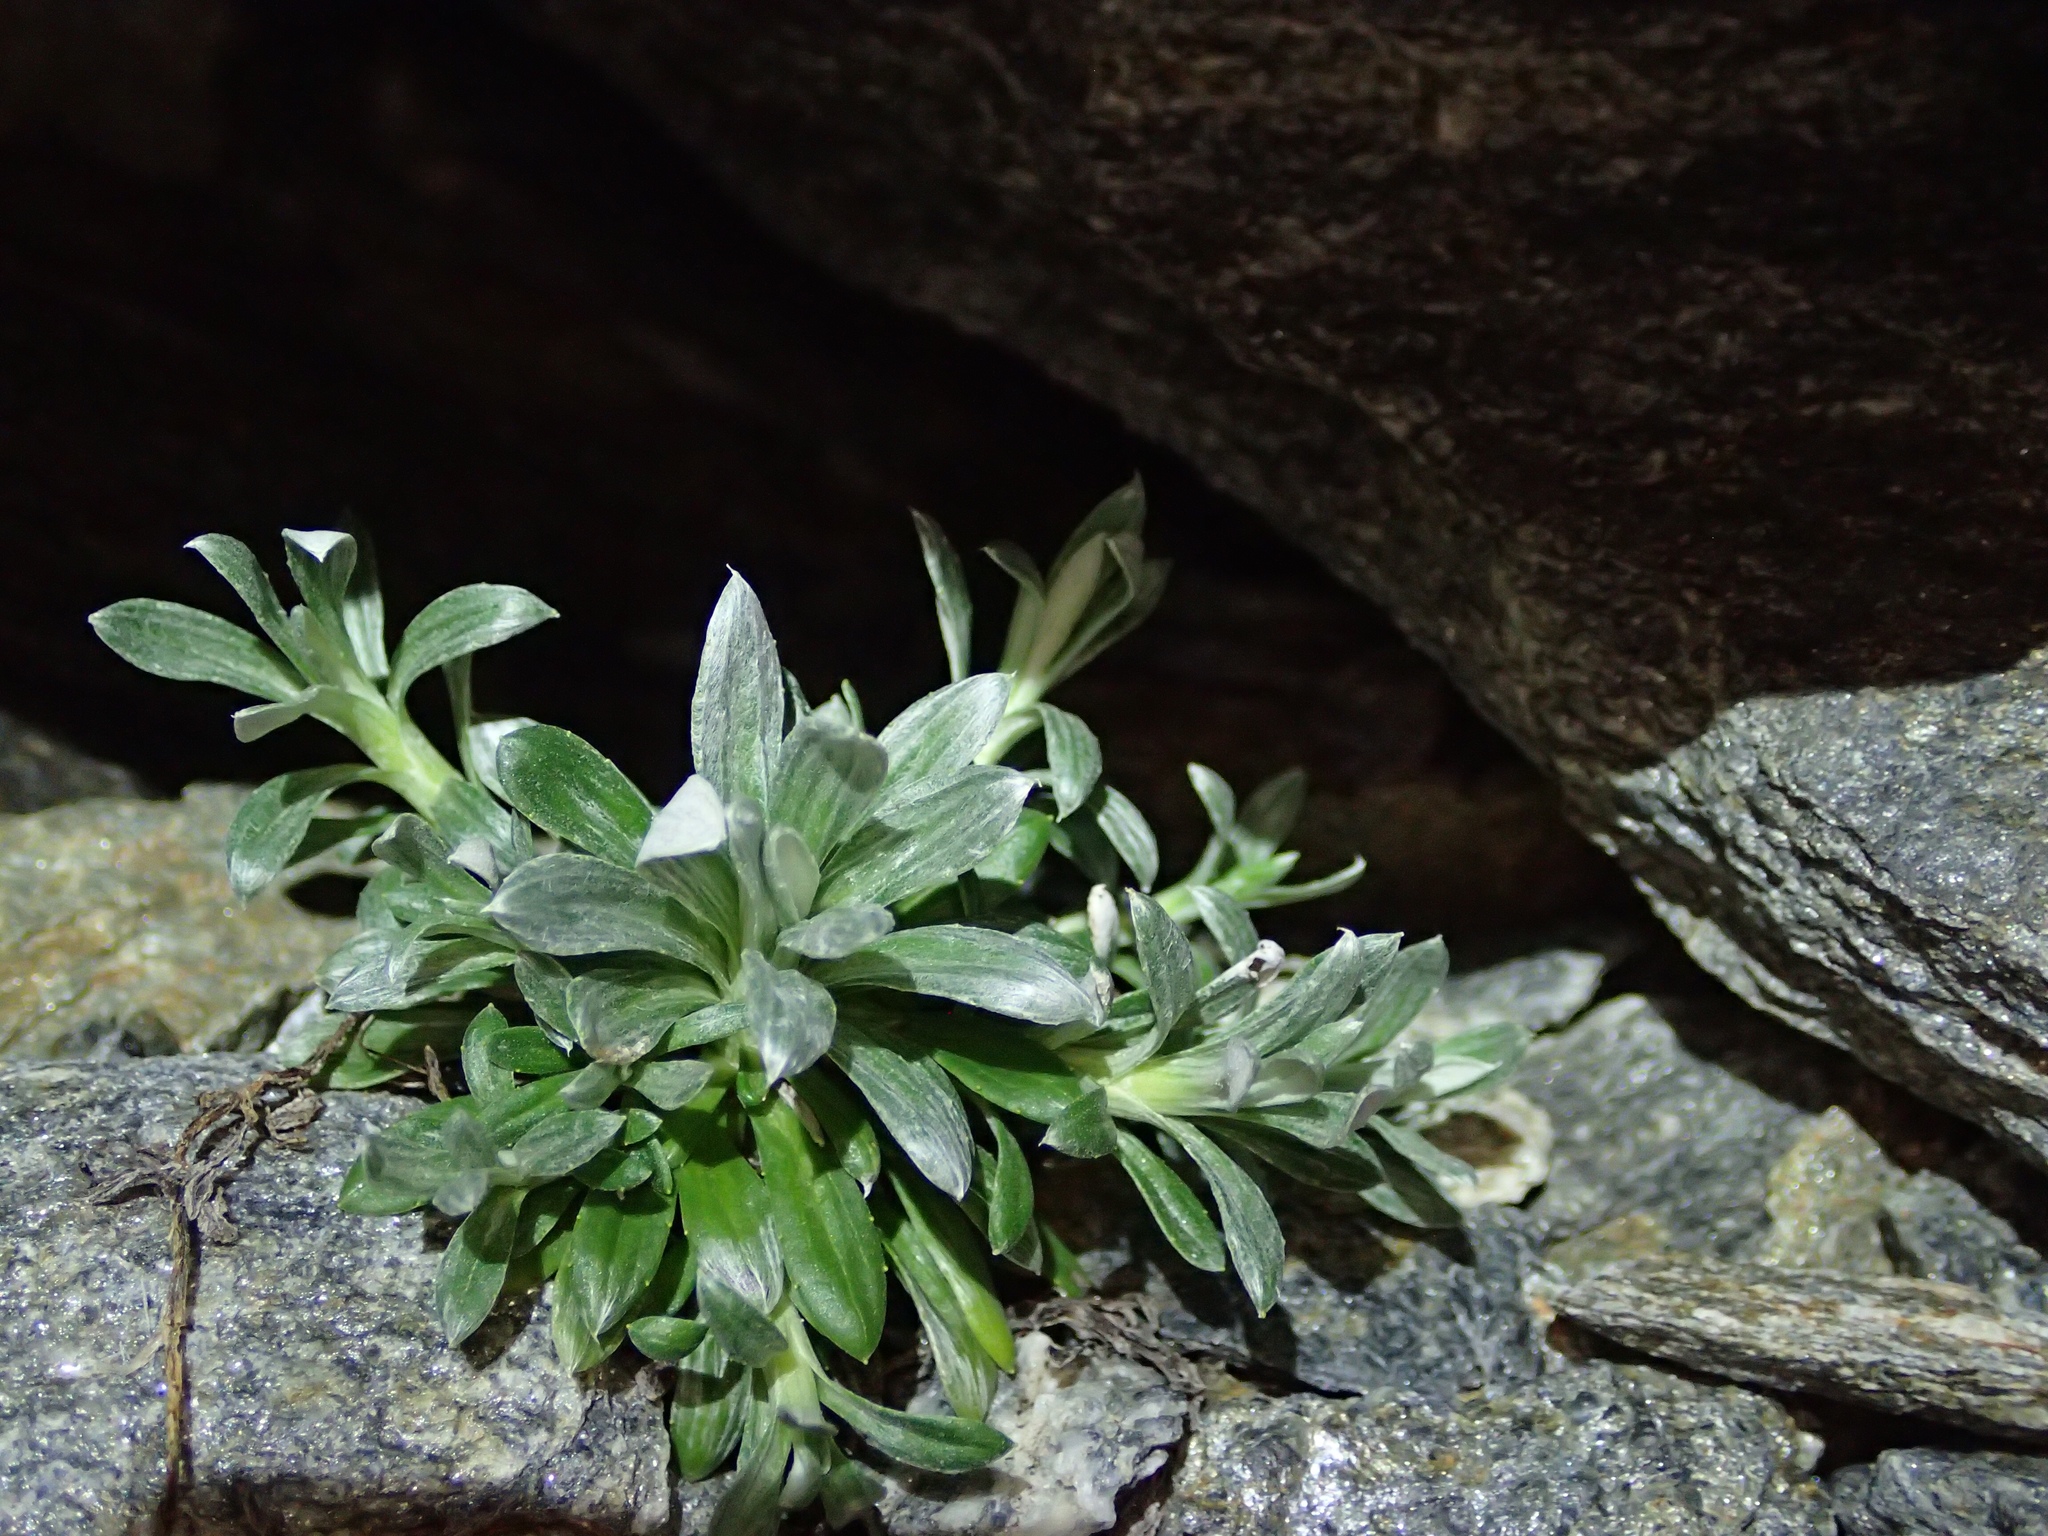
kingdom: Plantae
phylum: Tracheophyta
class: Magnoliopsida
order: Asterales
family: Asteraceae
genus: Celmisia
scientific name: Celmisia durietzii
